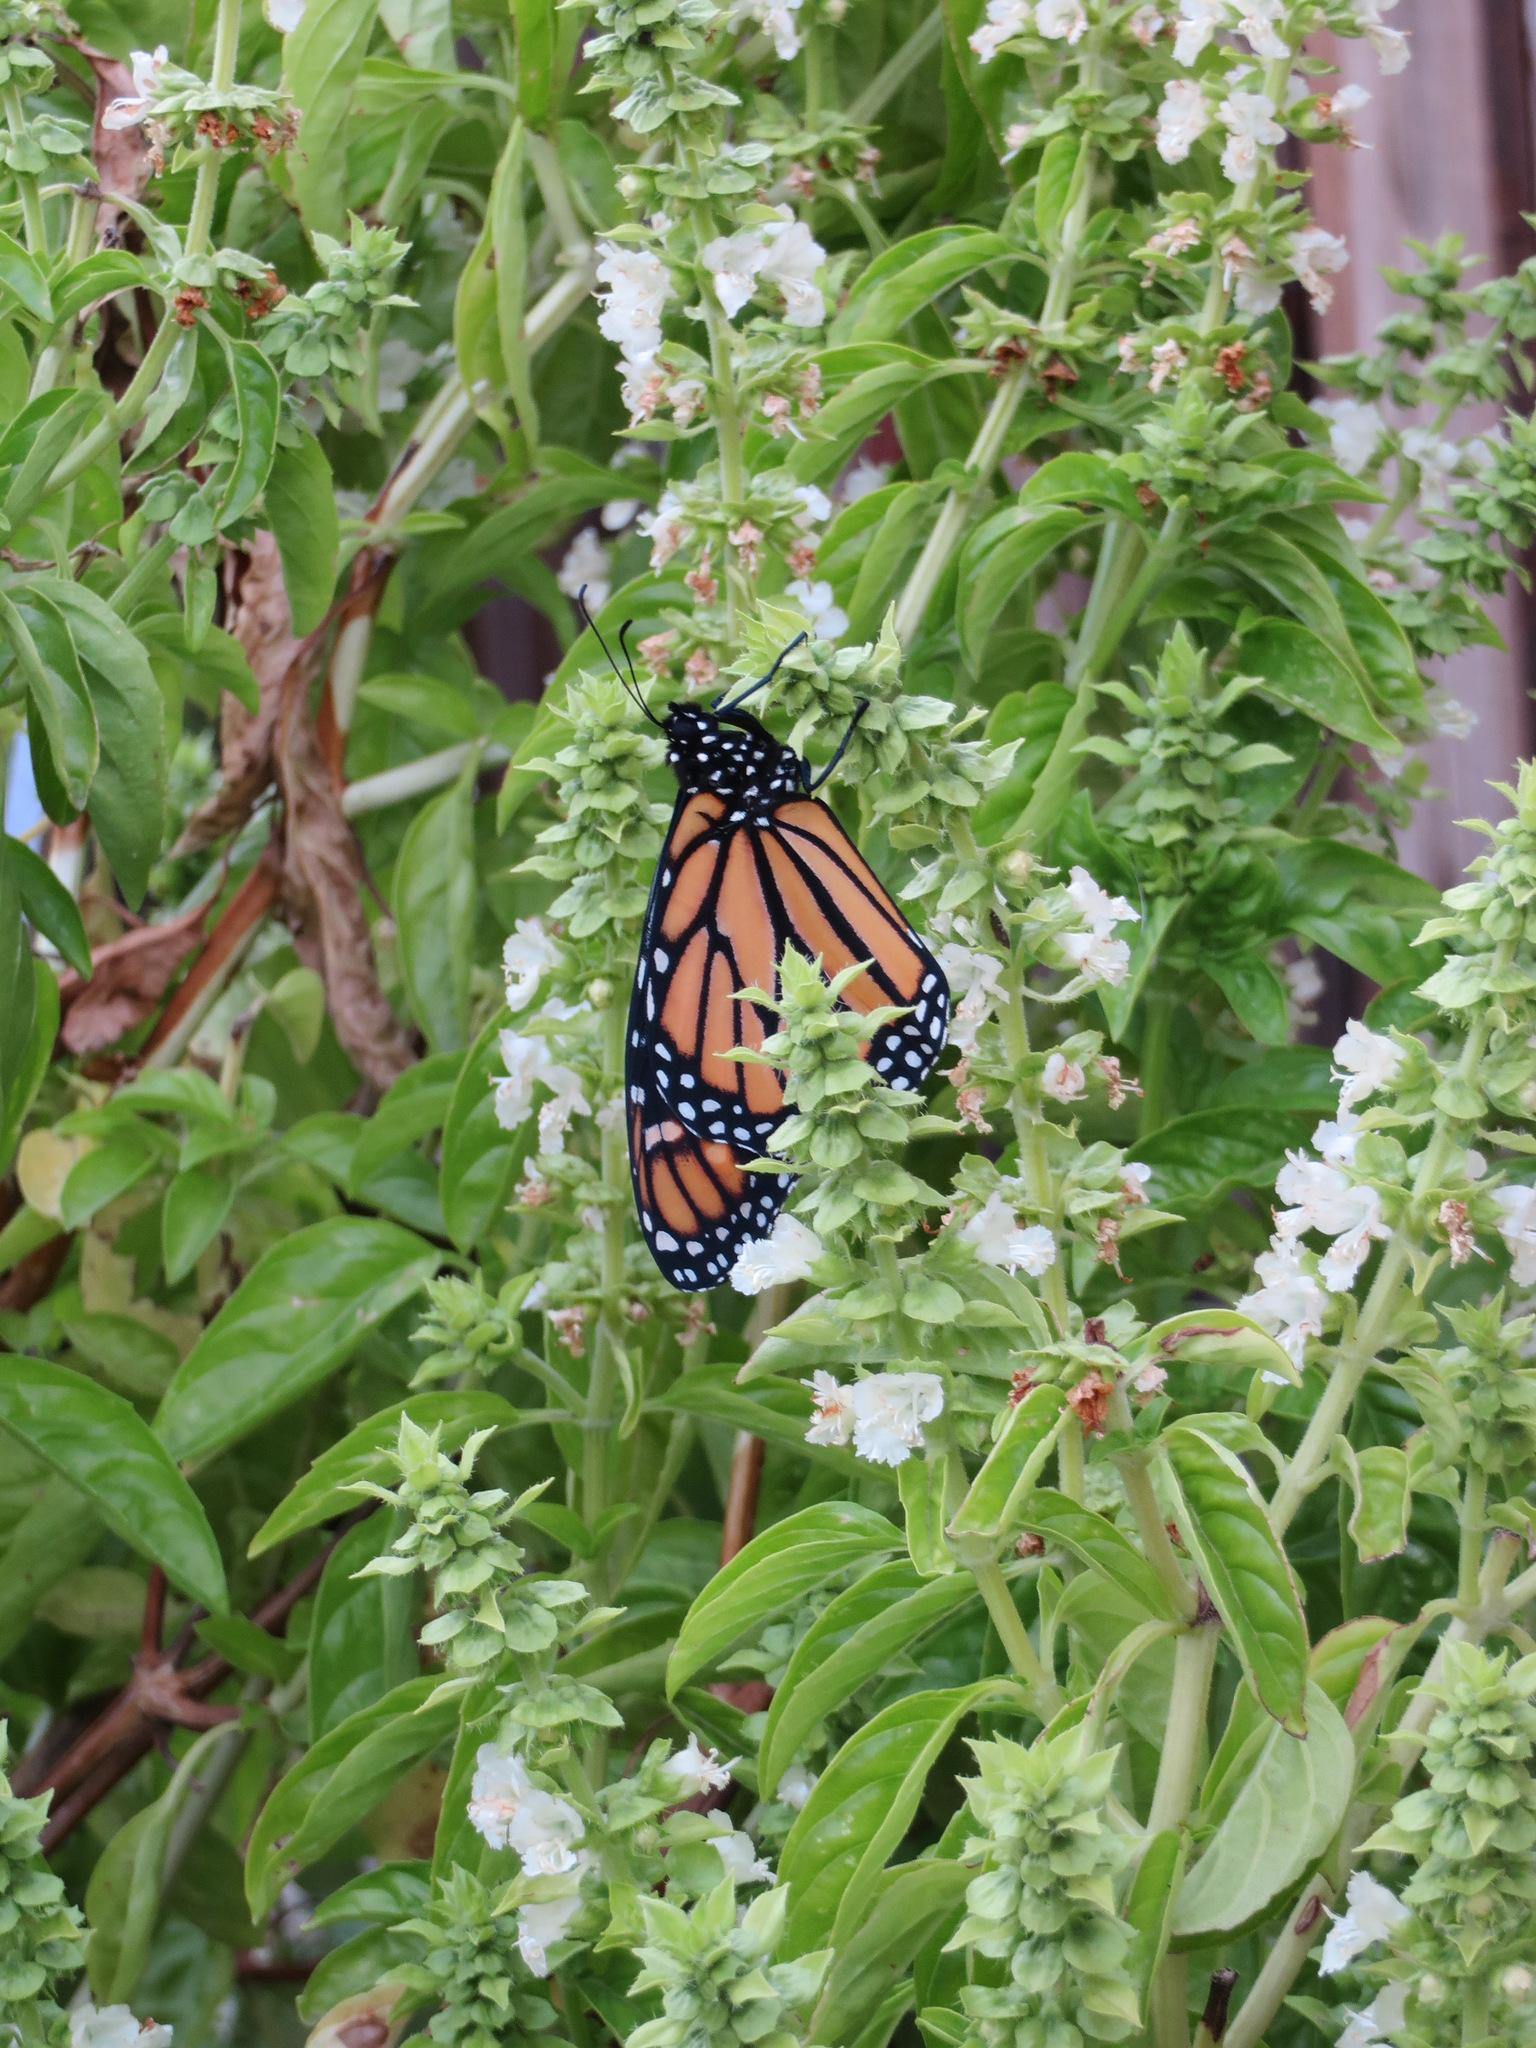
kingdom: Animalia
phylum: Arthropoda
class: Insecta
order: Lepidoptera
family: Nymphalidae
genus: Danaus
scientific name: Danaus plexippus
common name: Monarch
